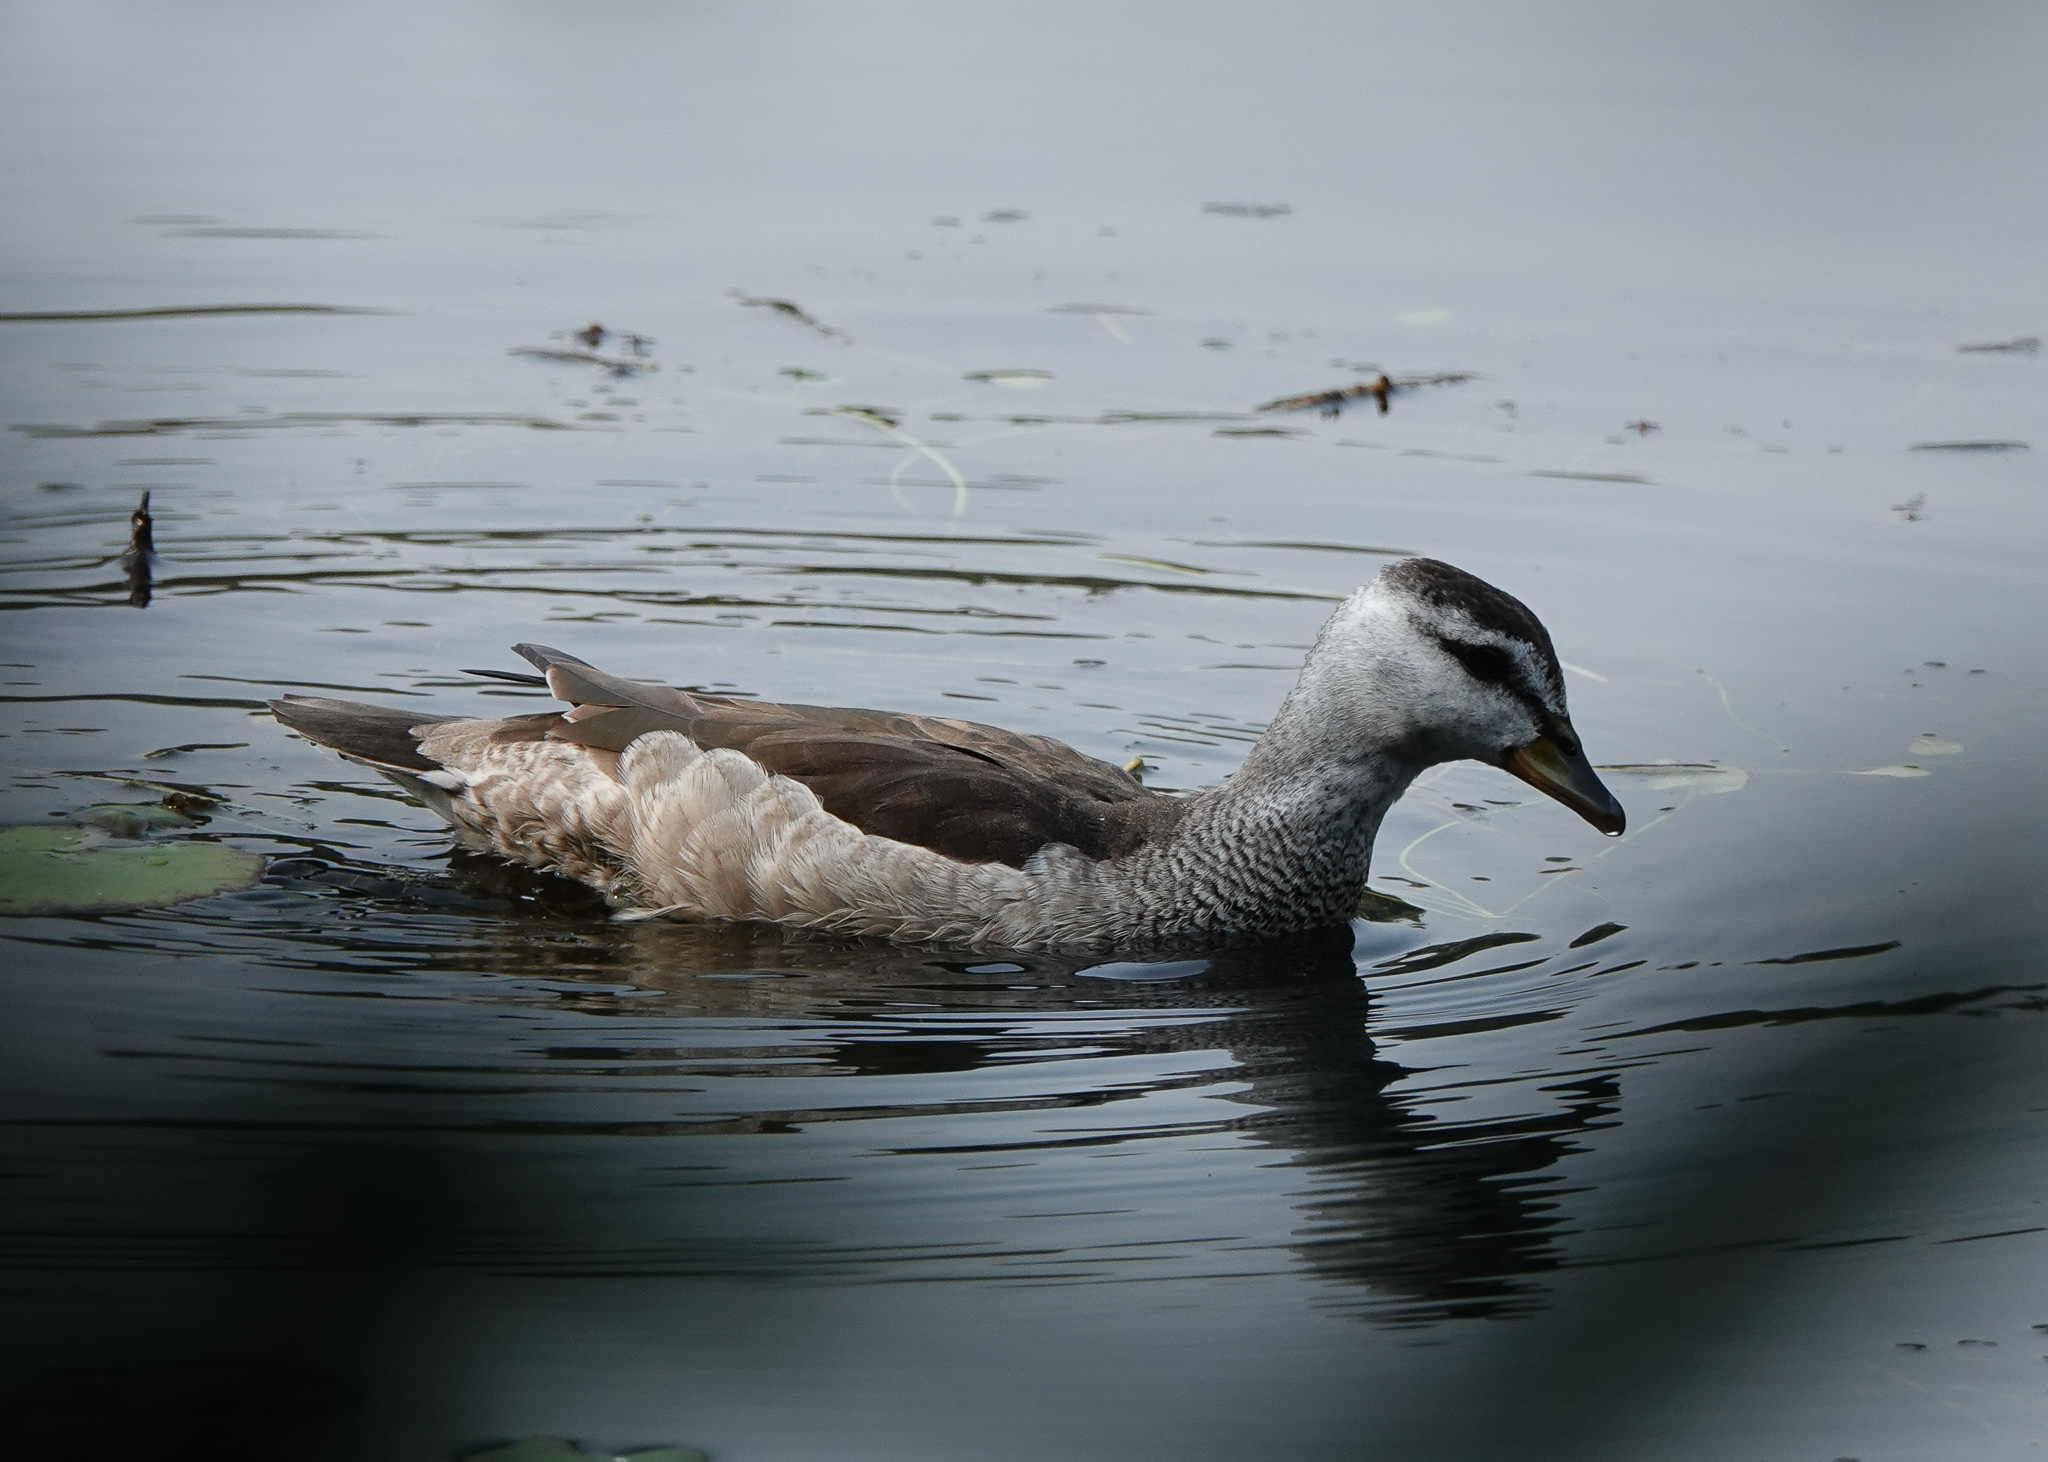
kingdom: Animalia
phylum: Chordata
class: Aves
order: Anseriformes
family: Anatidae
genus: Nettapus
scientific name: Nettapus coromandelianus
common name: Cotton pygmy-goose
